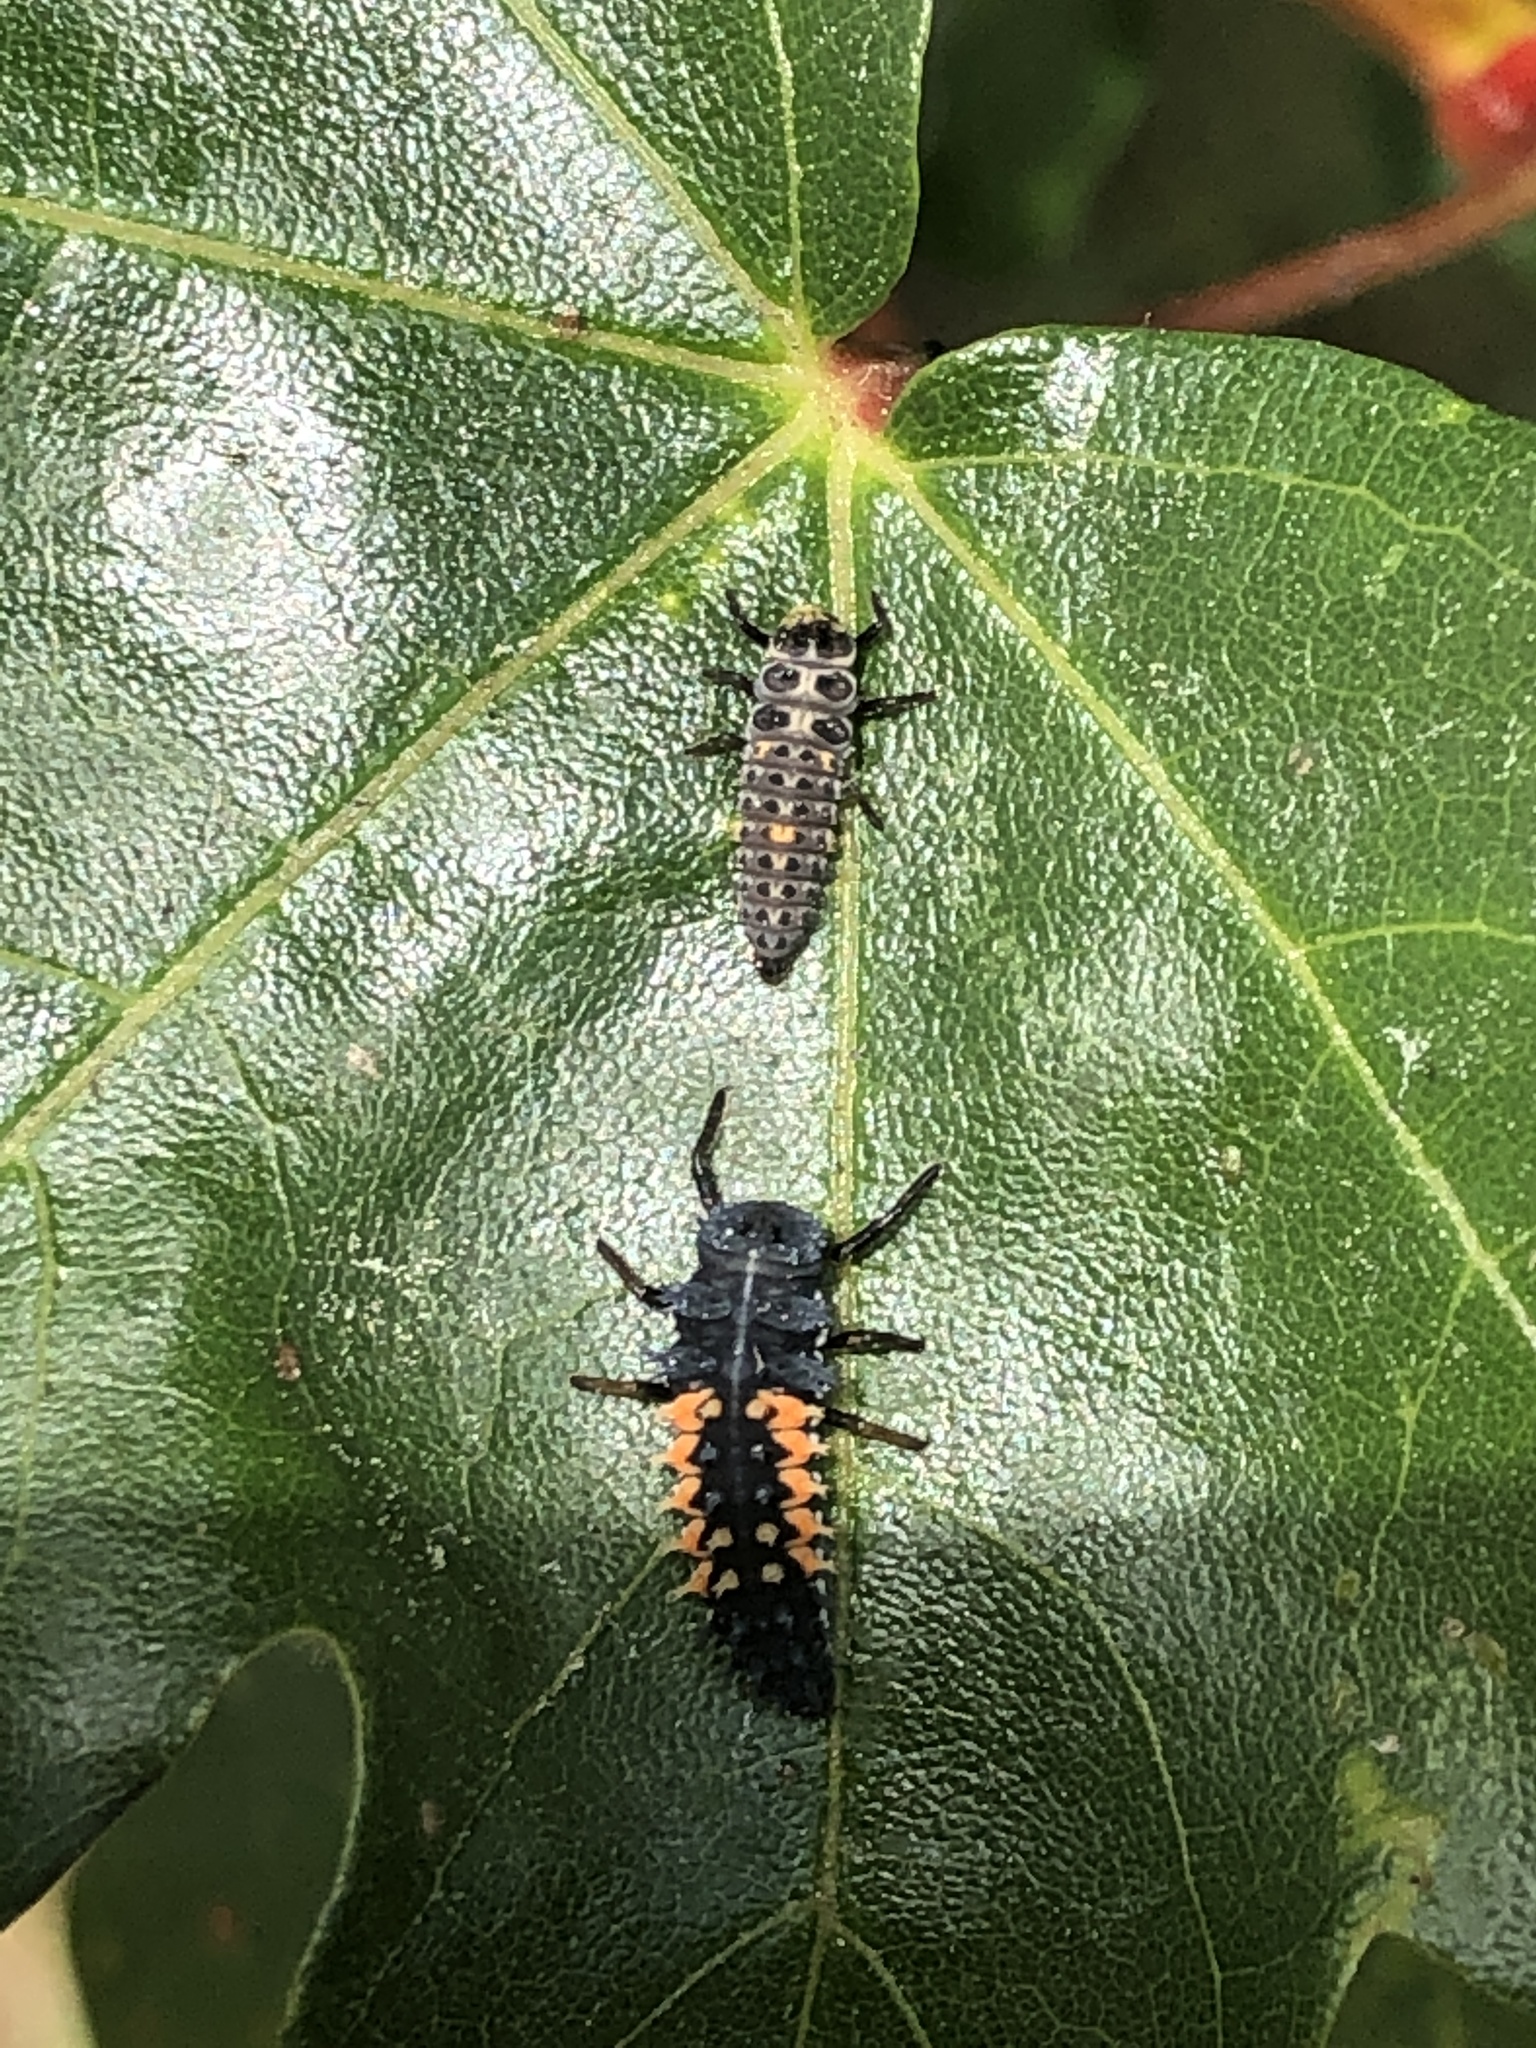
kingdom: Animalia
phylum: Arthropoda
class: Insecta
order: Coleoptera
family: Coccinellidae
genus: Harmonia
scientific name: Harmonia axyridis
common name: Harlequin ladybird
